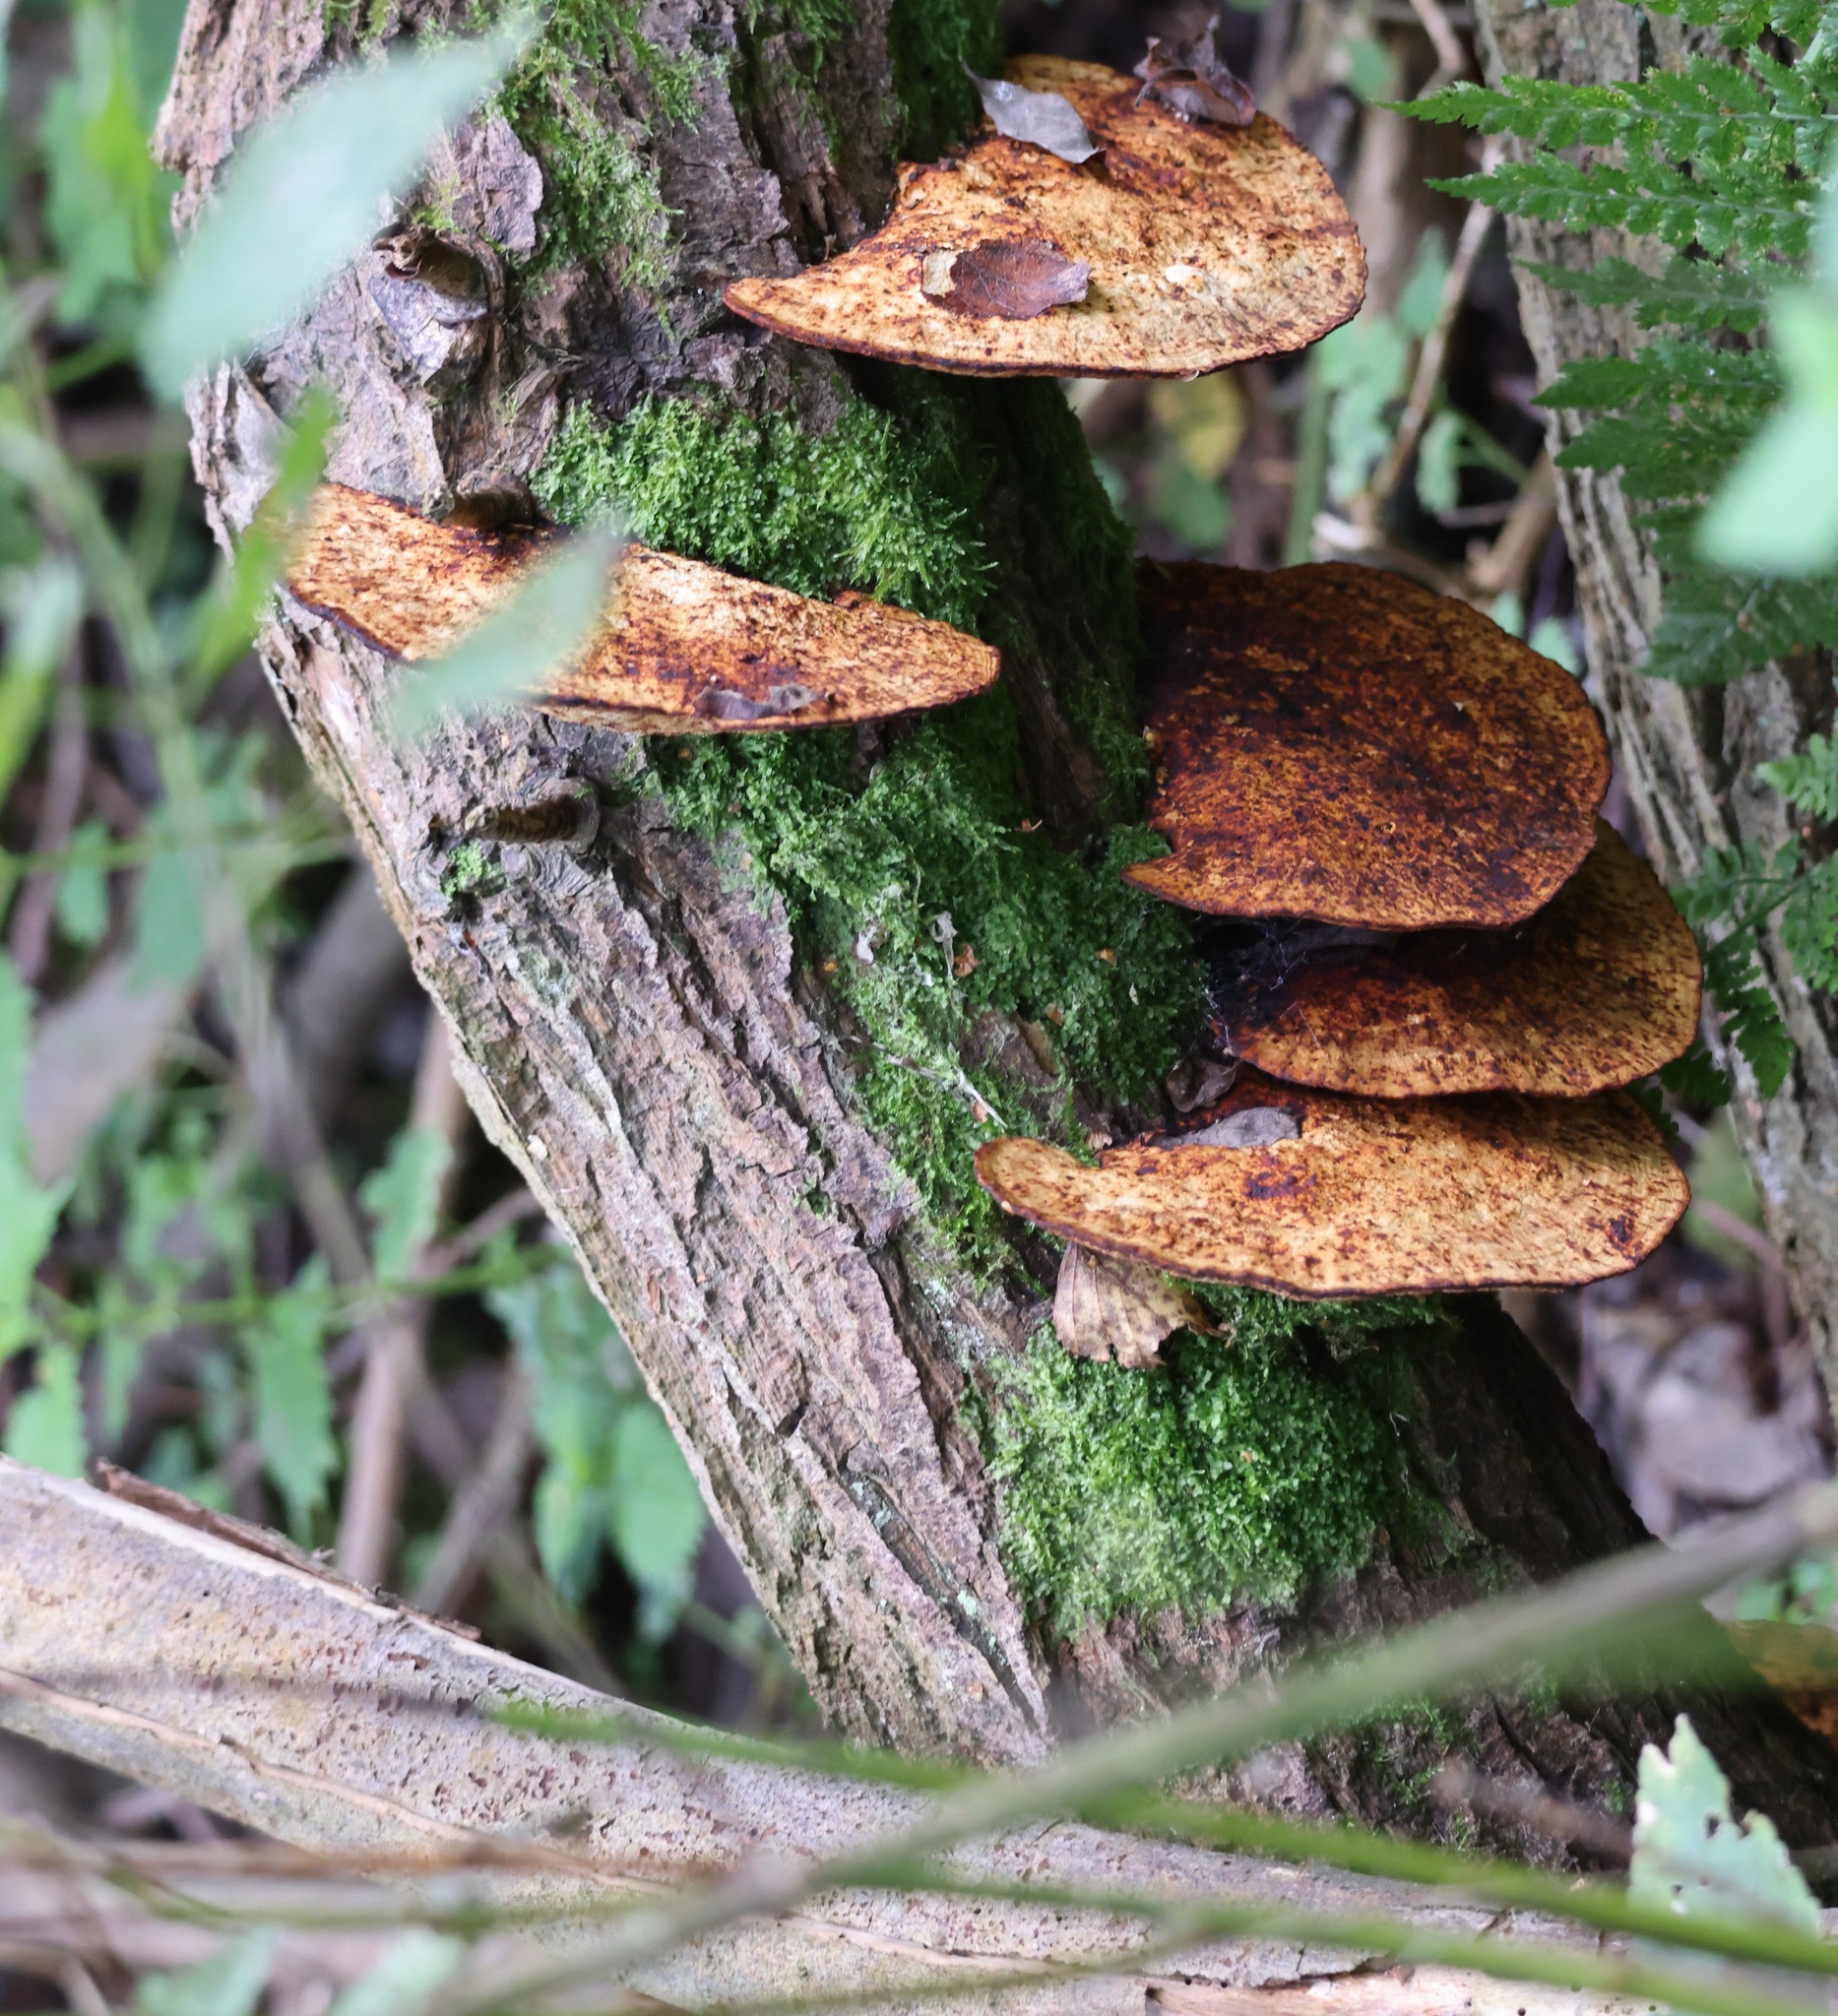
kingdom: Fungi
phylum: Basidiomycota
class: Agaricomycetes
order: Polyporales
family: Polyporaceae
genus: Daedaleopsis
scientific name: Daedaleopsis confragosa
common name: Blushing bracket
